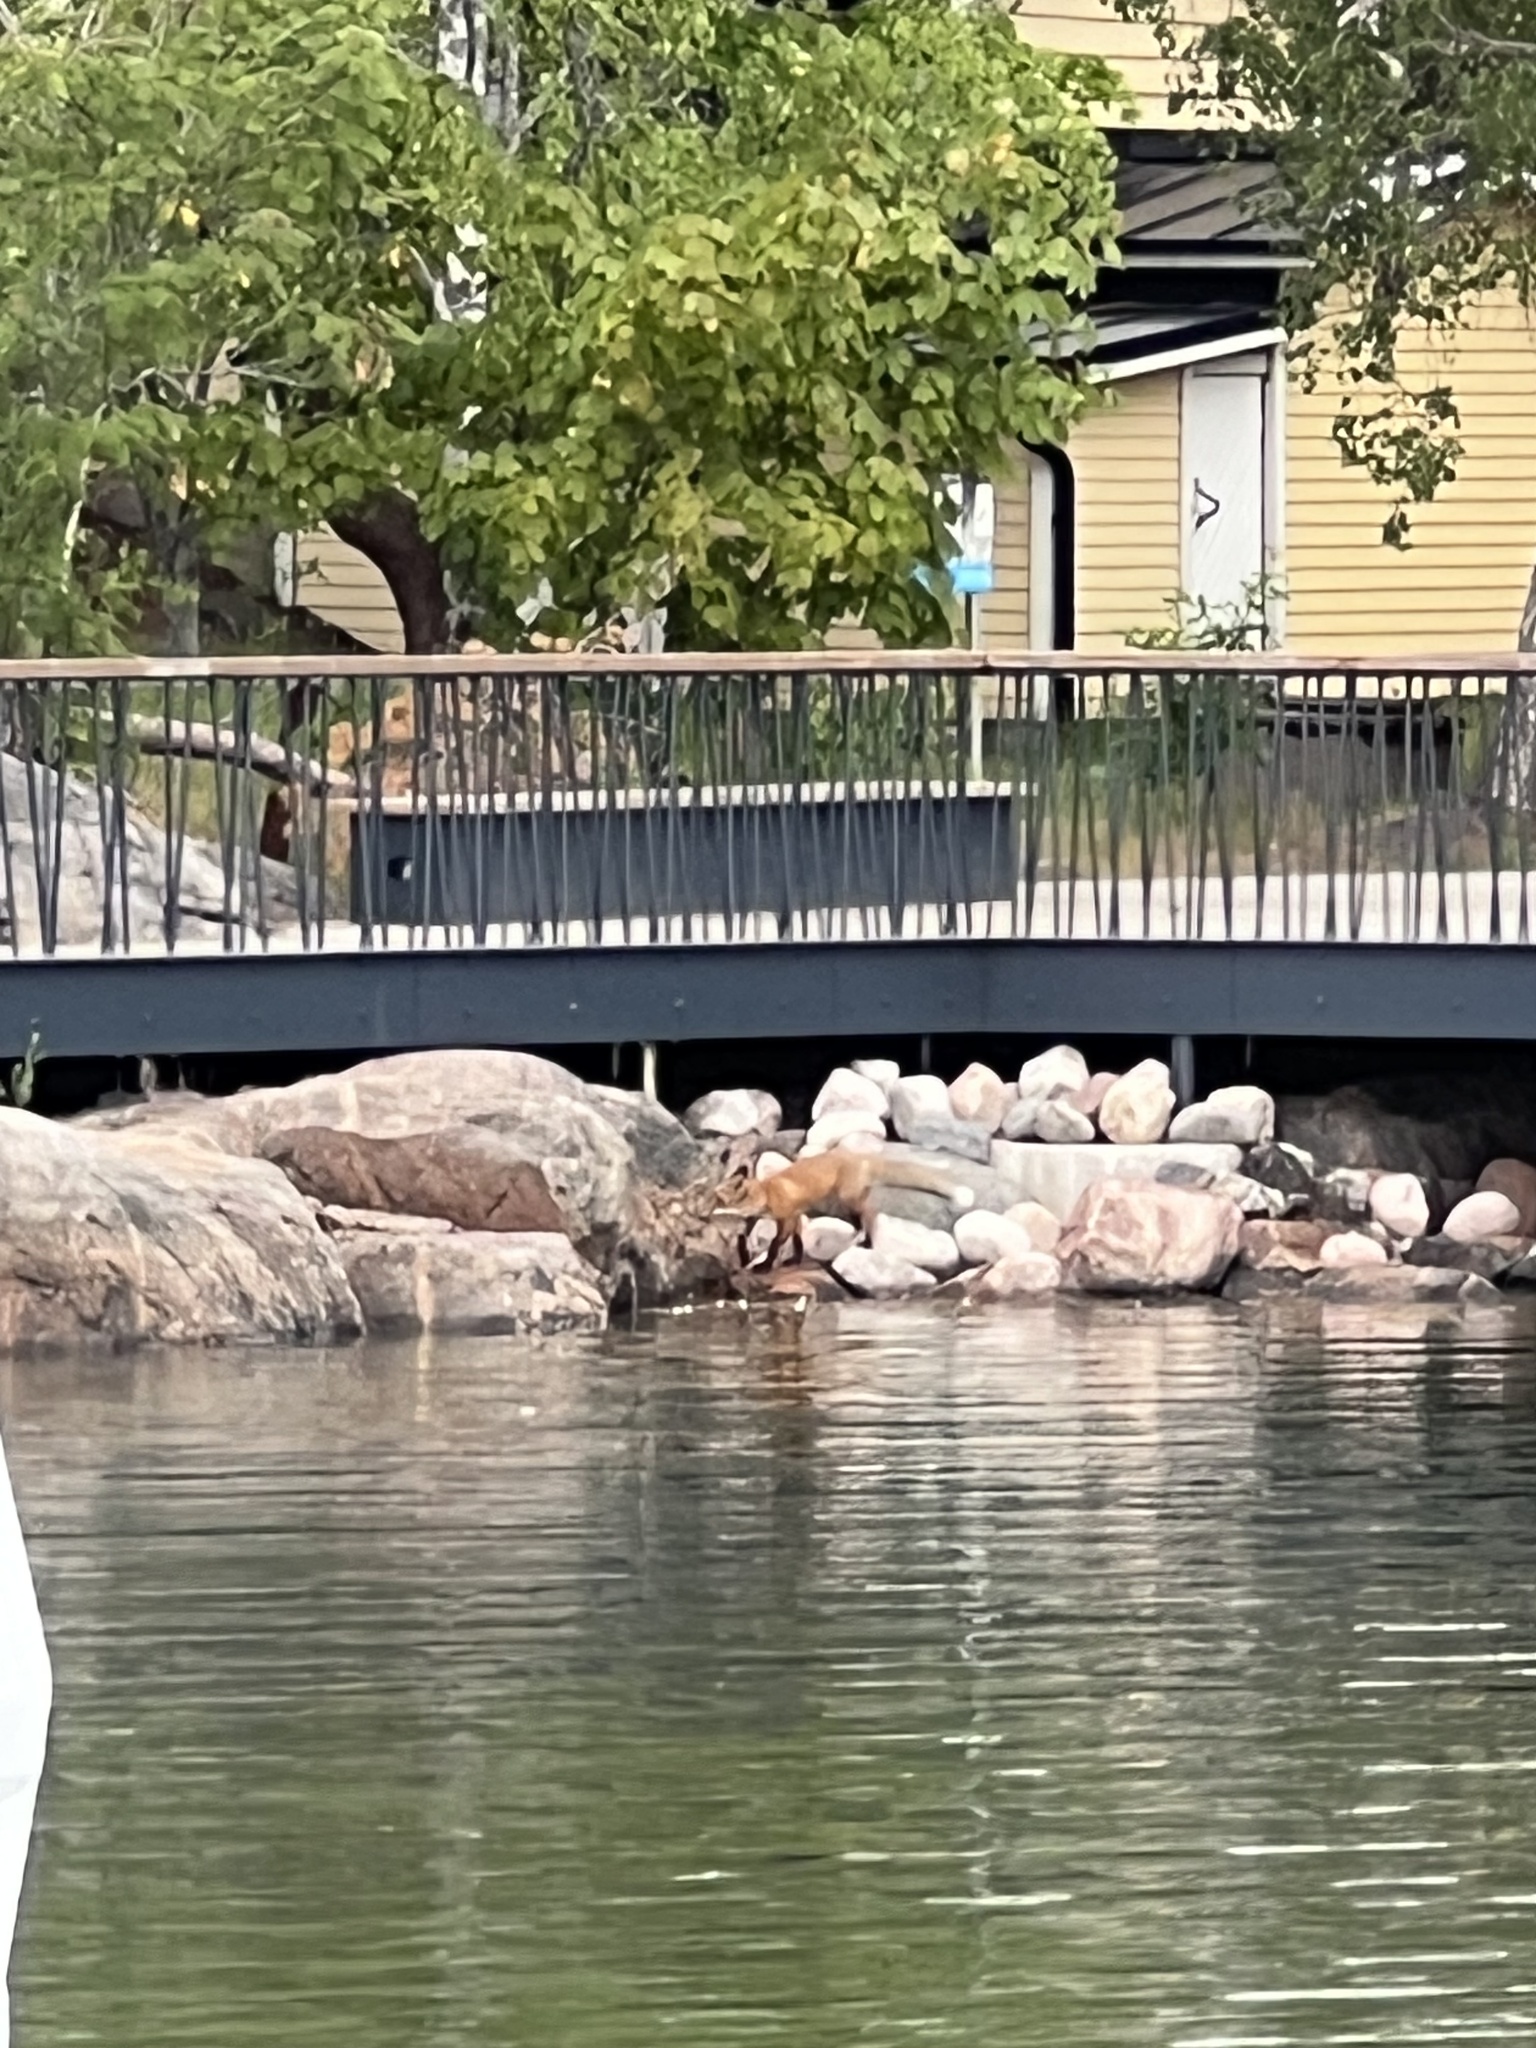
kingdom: Animalia
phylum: Chordata
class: Mammalia
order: Carnivora
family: Canidae
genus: Vulpes
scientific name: Vulpes vulpes
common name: Red fox
